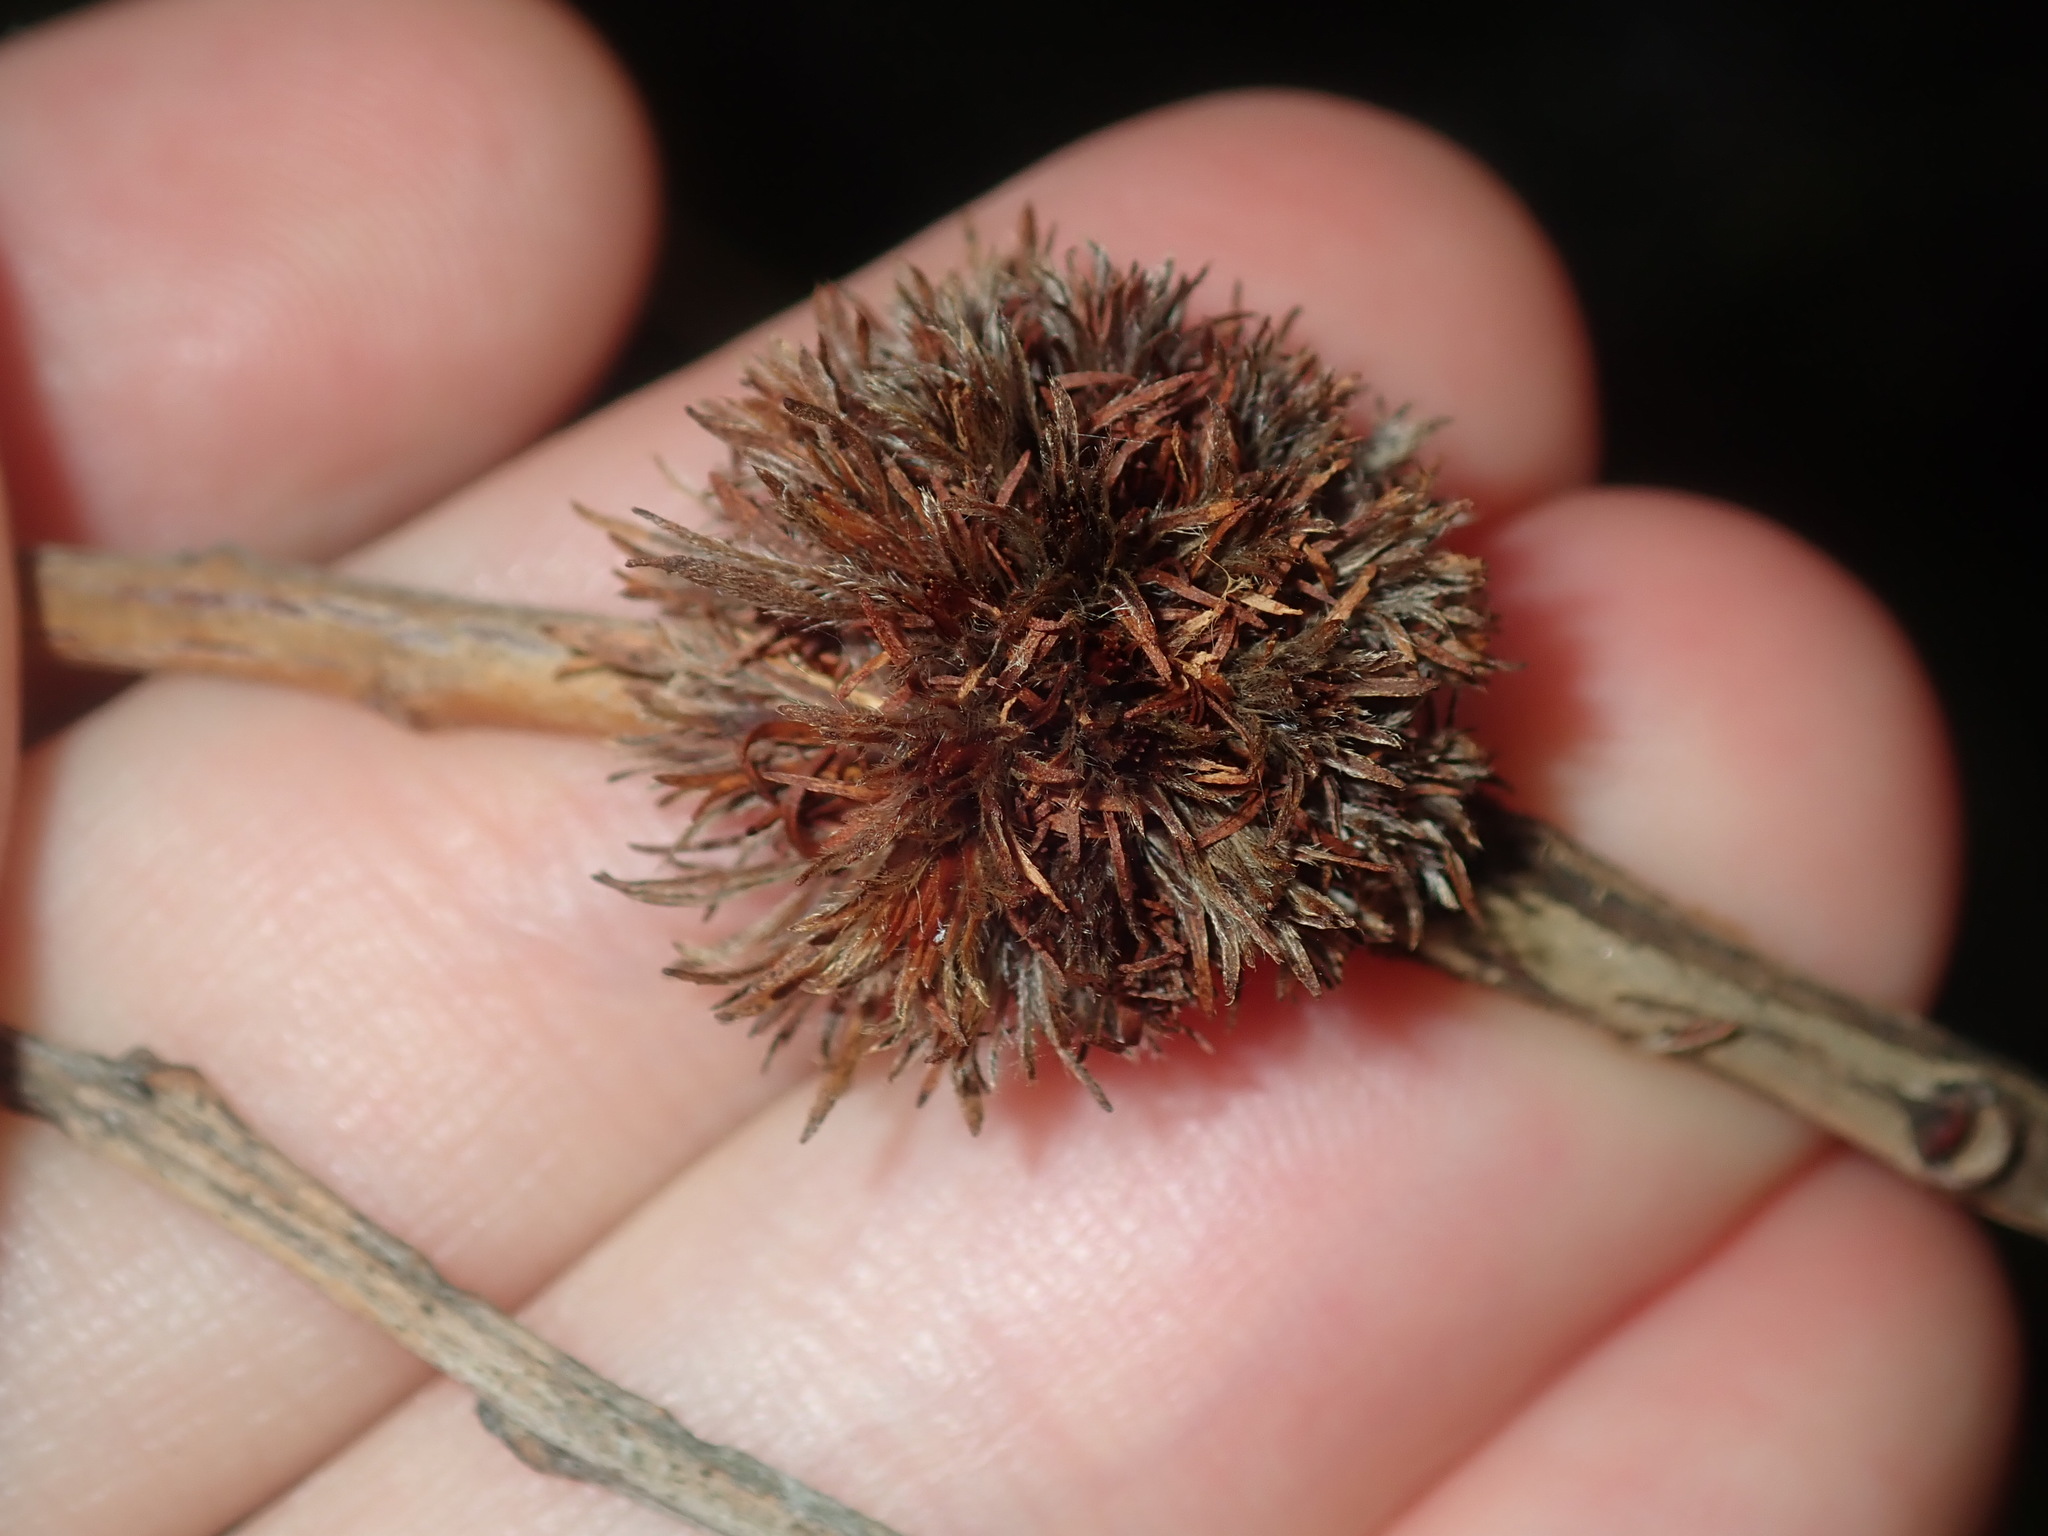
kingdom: Animalia
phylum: Arthropoda
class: Insecta
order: Hemiptera
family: Beesoniidae
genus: Beesonia
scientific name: Beesonia ferrugineus
